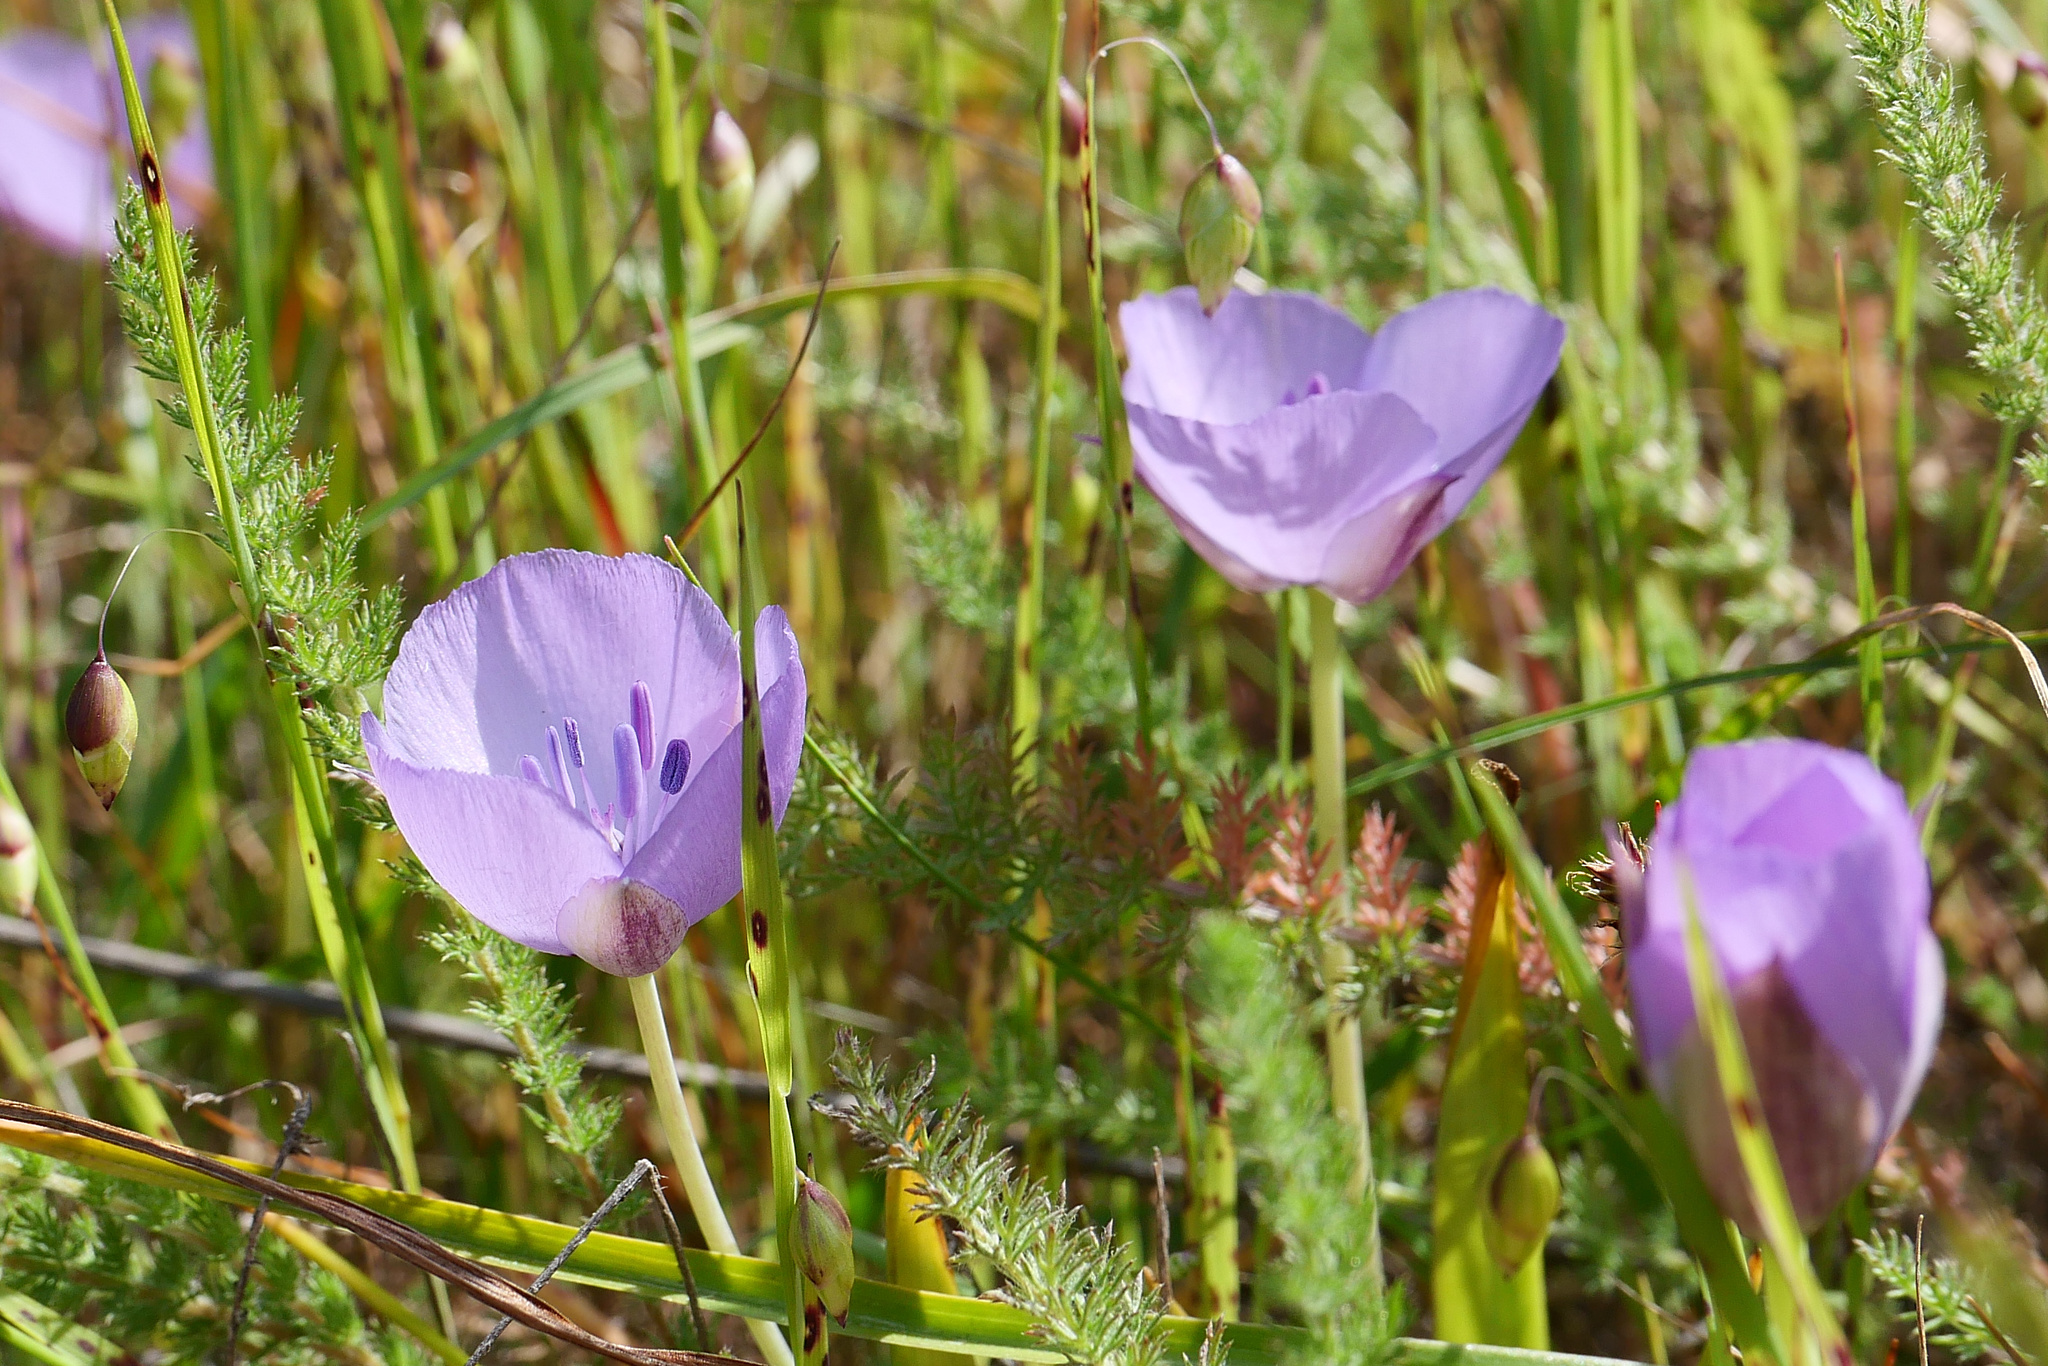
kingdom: Plantae
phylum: Tracheophyta
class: Liliopsida
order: Liliales
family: Liliaceae
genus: Calochortus
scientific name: Calochortus uniflorus
